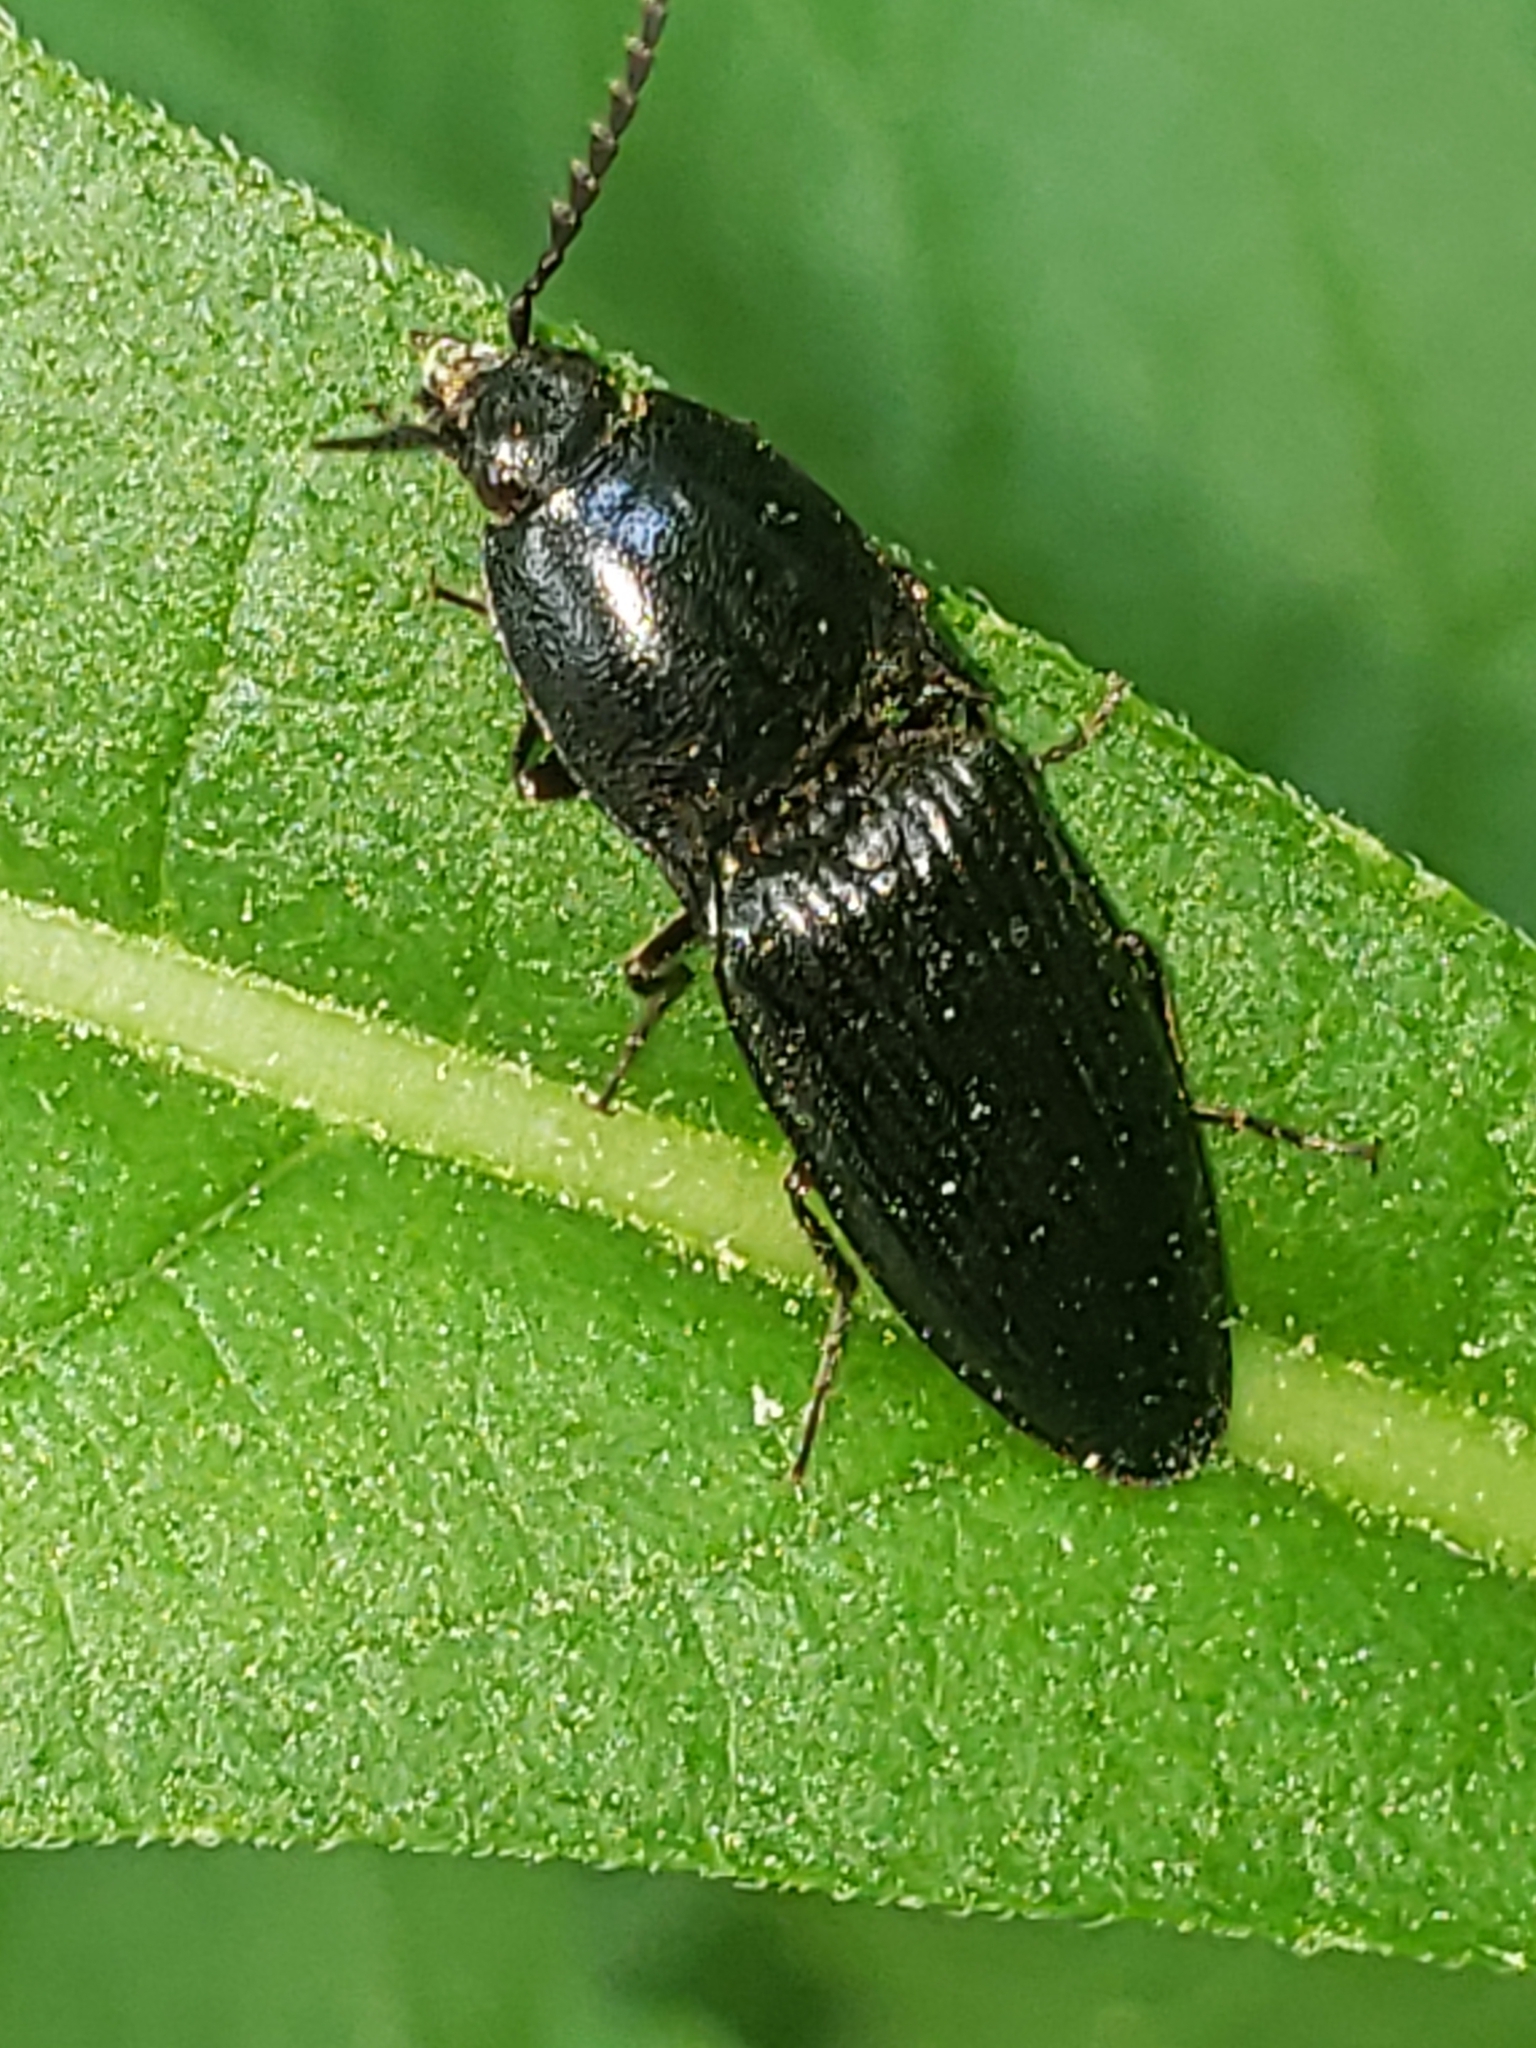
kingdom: Animalia
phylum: Arthropoda
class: Insecta
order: Coleoptera
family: Elateridae
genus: Neopristilophus
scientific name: Neopristilophus
